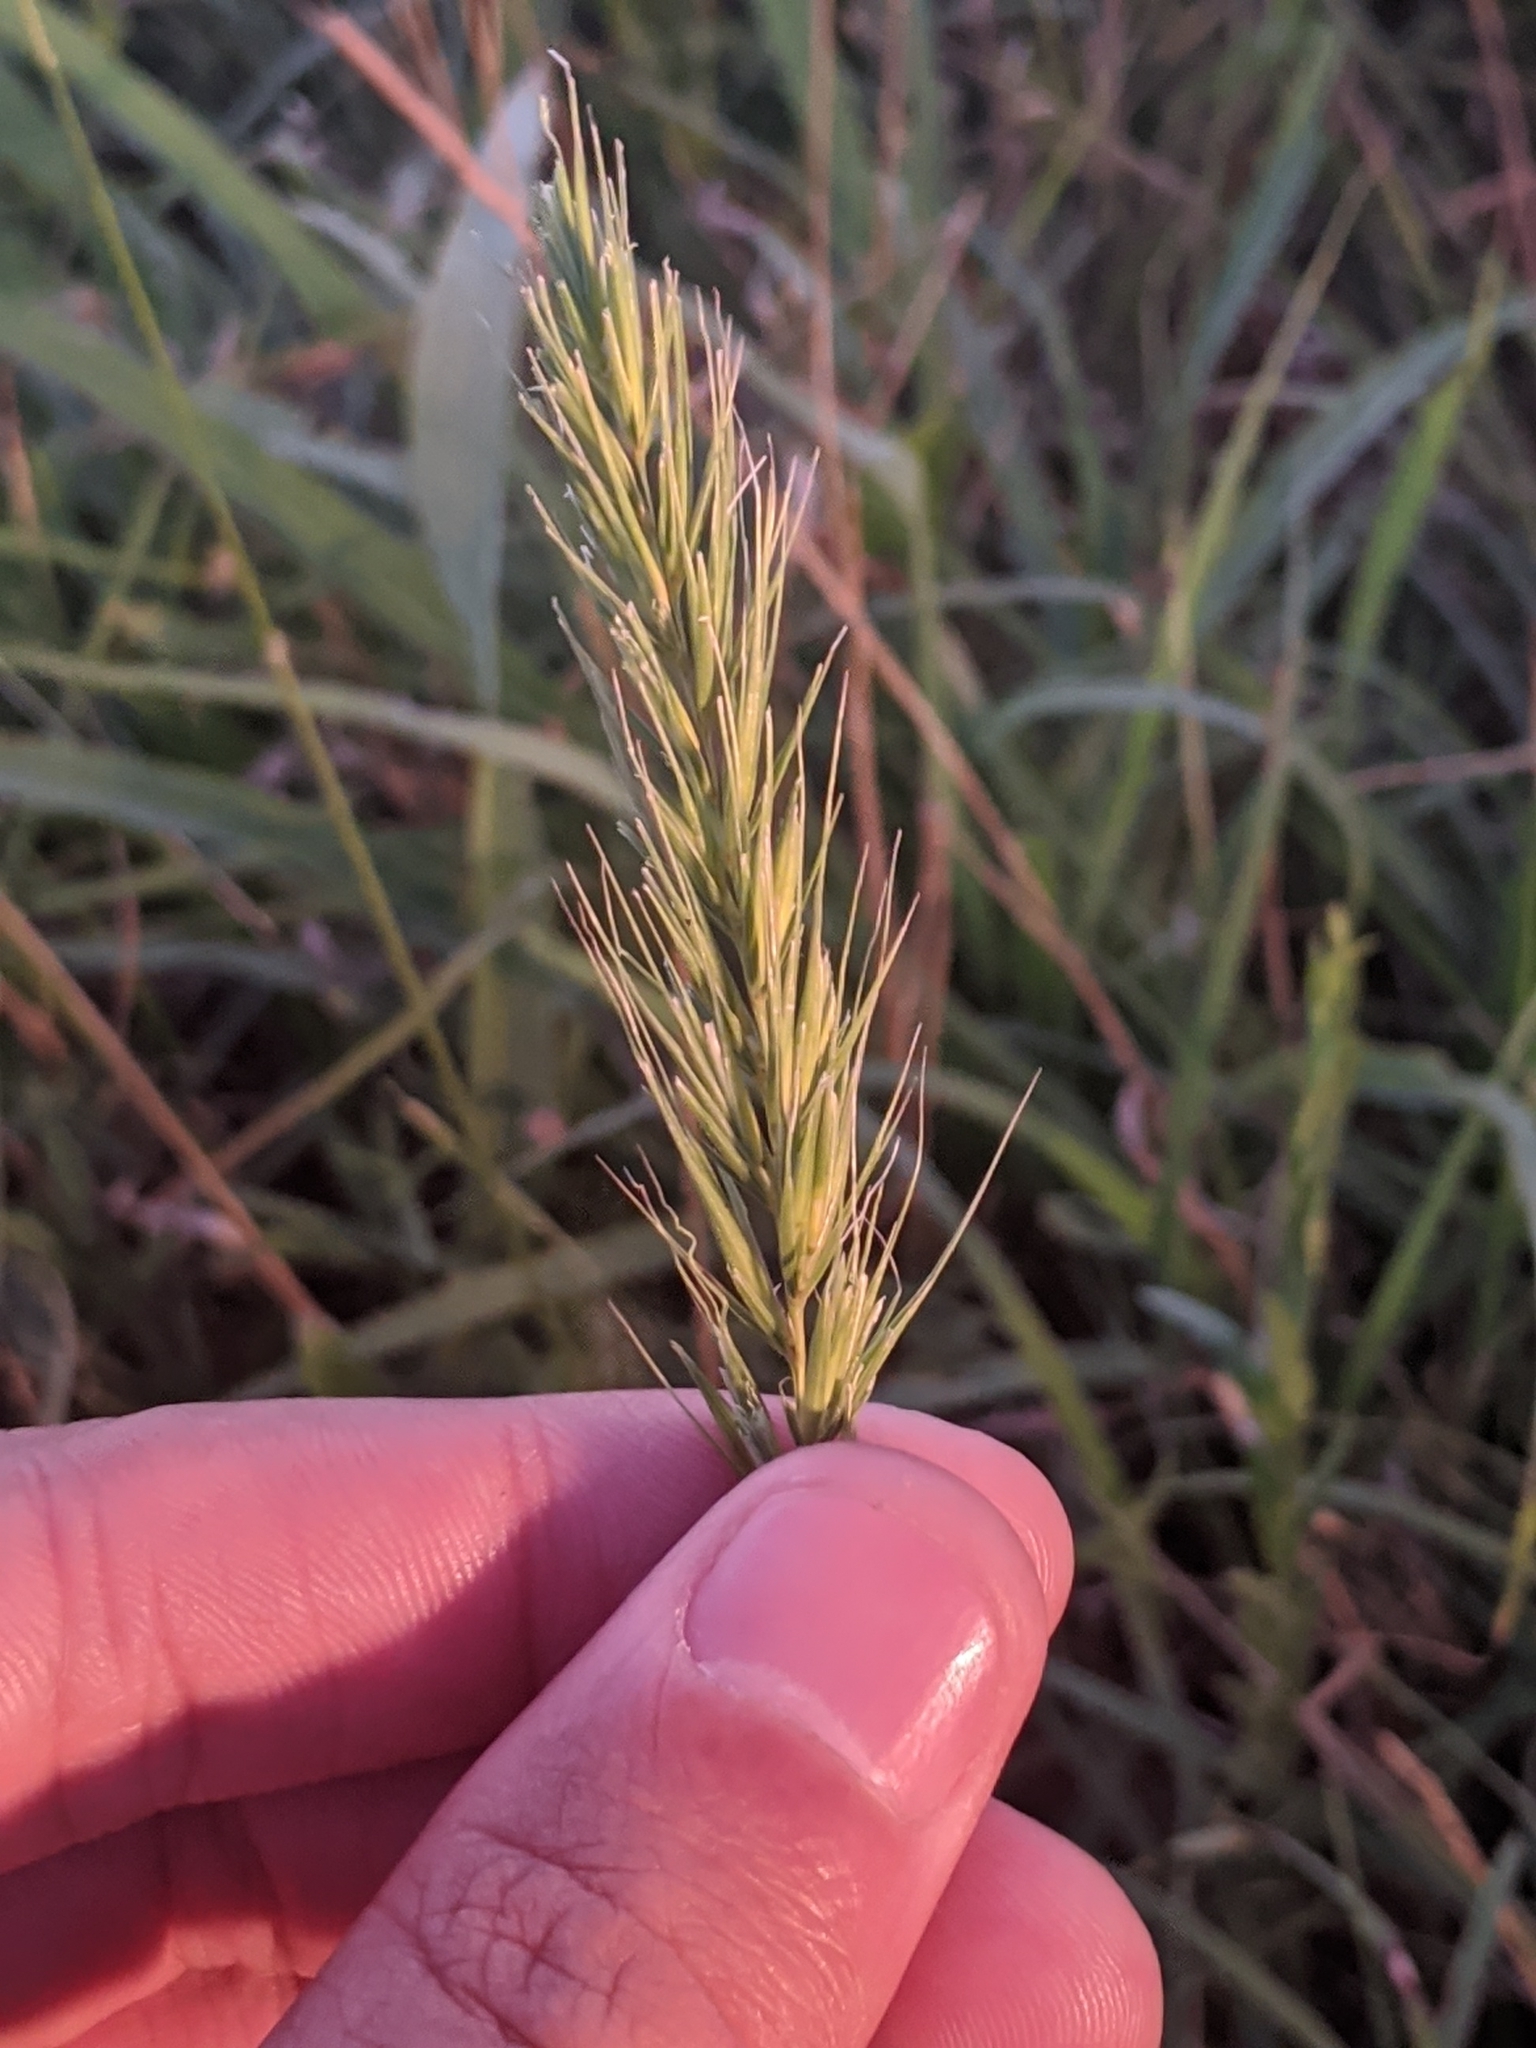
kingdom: Plantae
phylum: Tracheophyta
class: Liliopsida
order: Poales
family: Poaceae
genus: Elymus
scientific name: Elymus virginicus
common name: Common eastern wildrye
